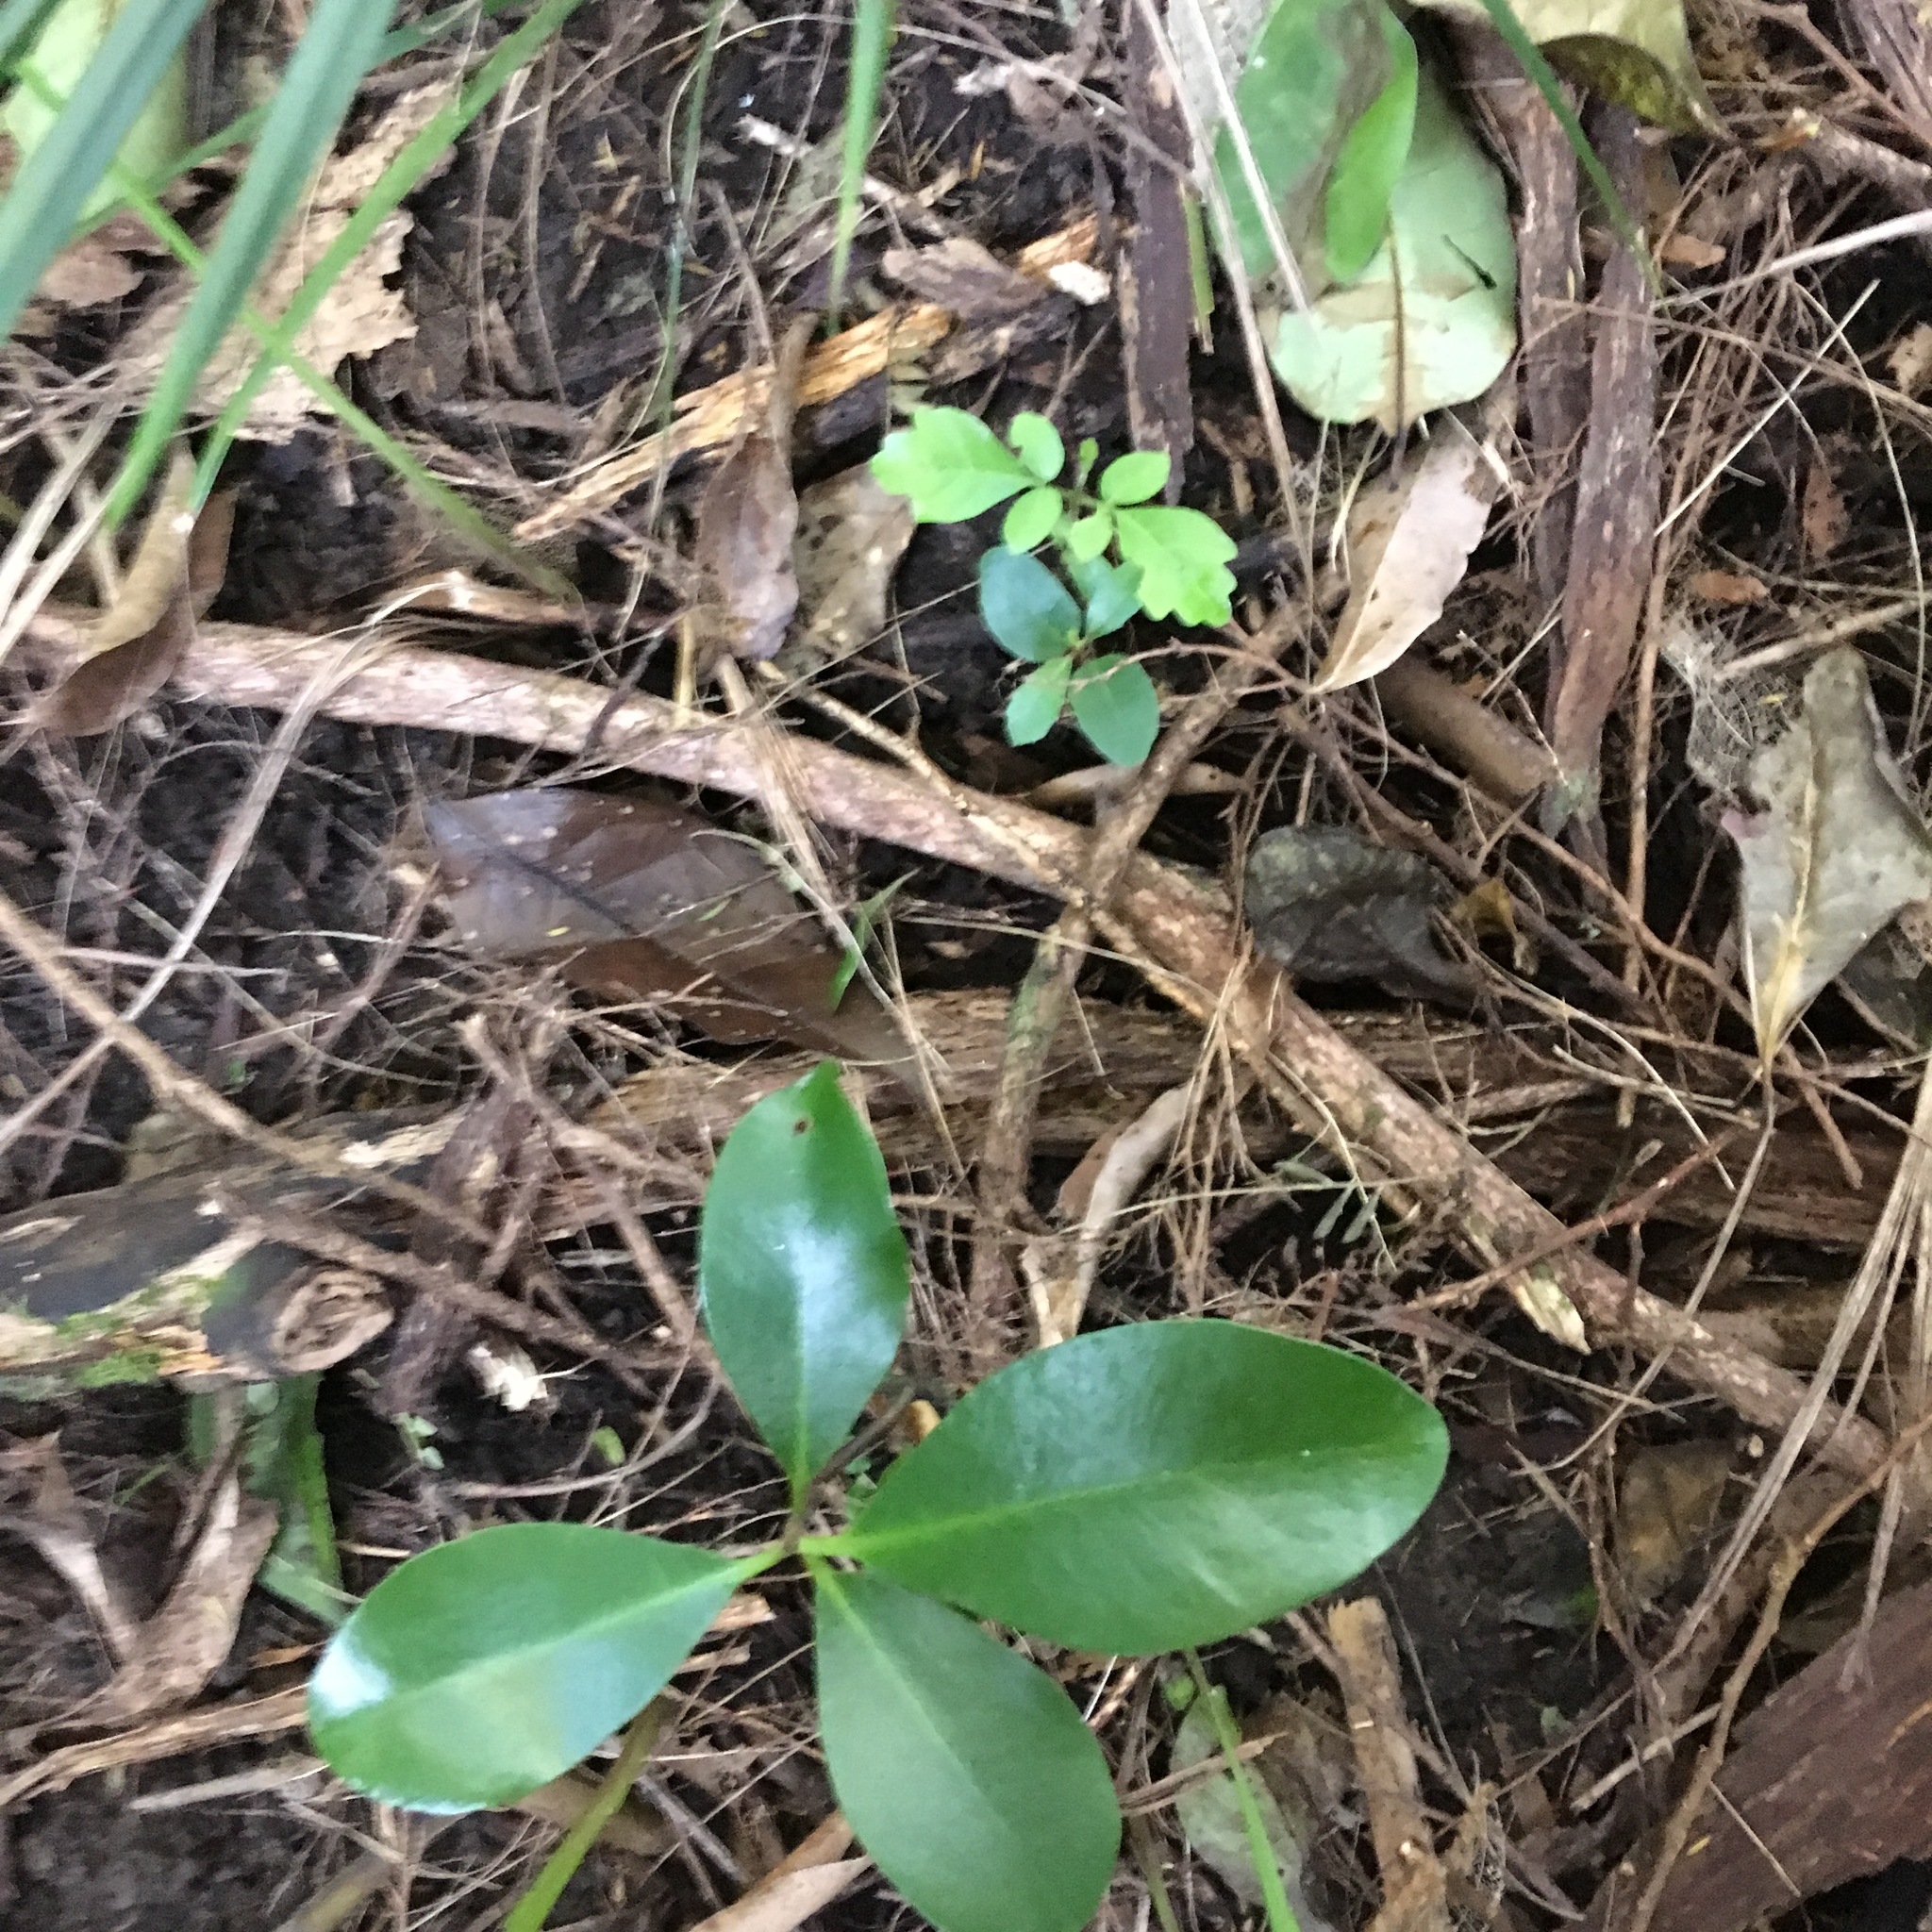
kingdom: Plantae
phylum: Tracheophyta
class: Magnoliopsida
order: Cucurbitales
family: Corynocarpaceae
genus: Corynocarpus
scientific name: Corynocarpus laevigatus
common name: New zealand laurel
